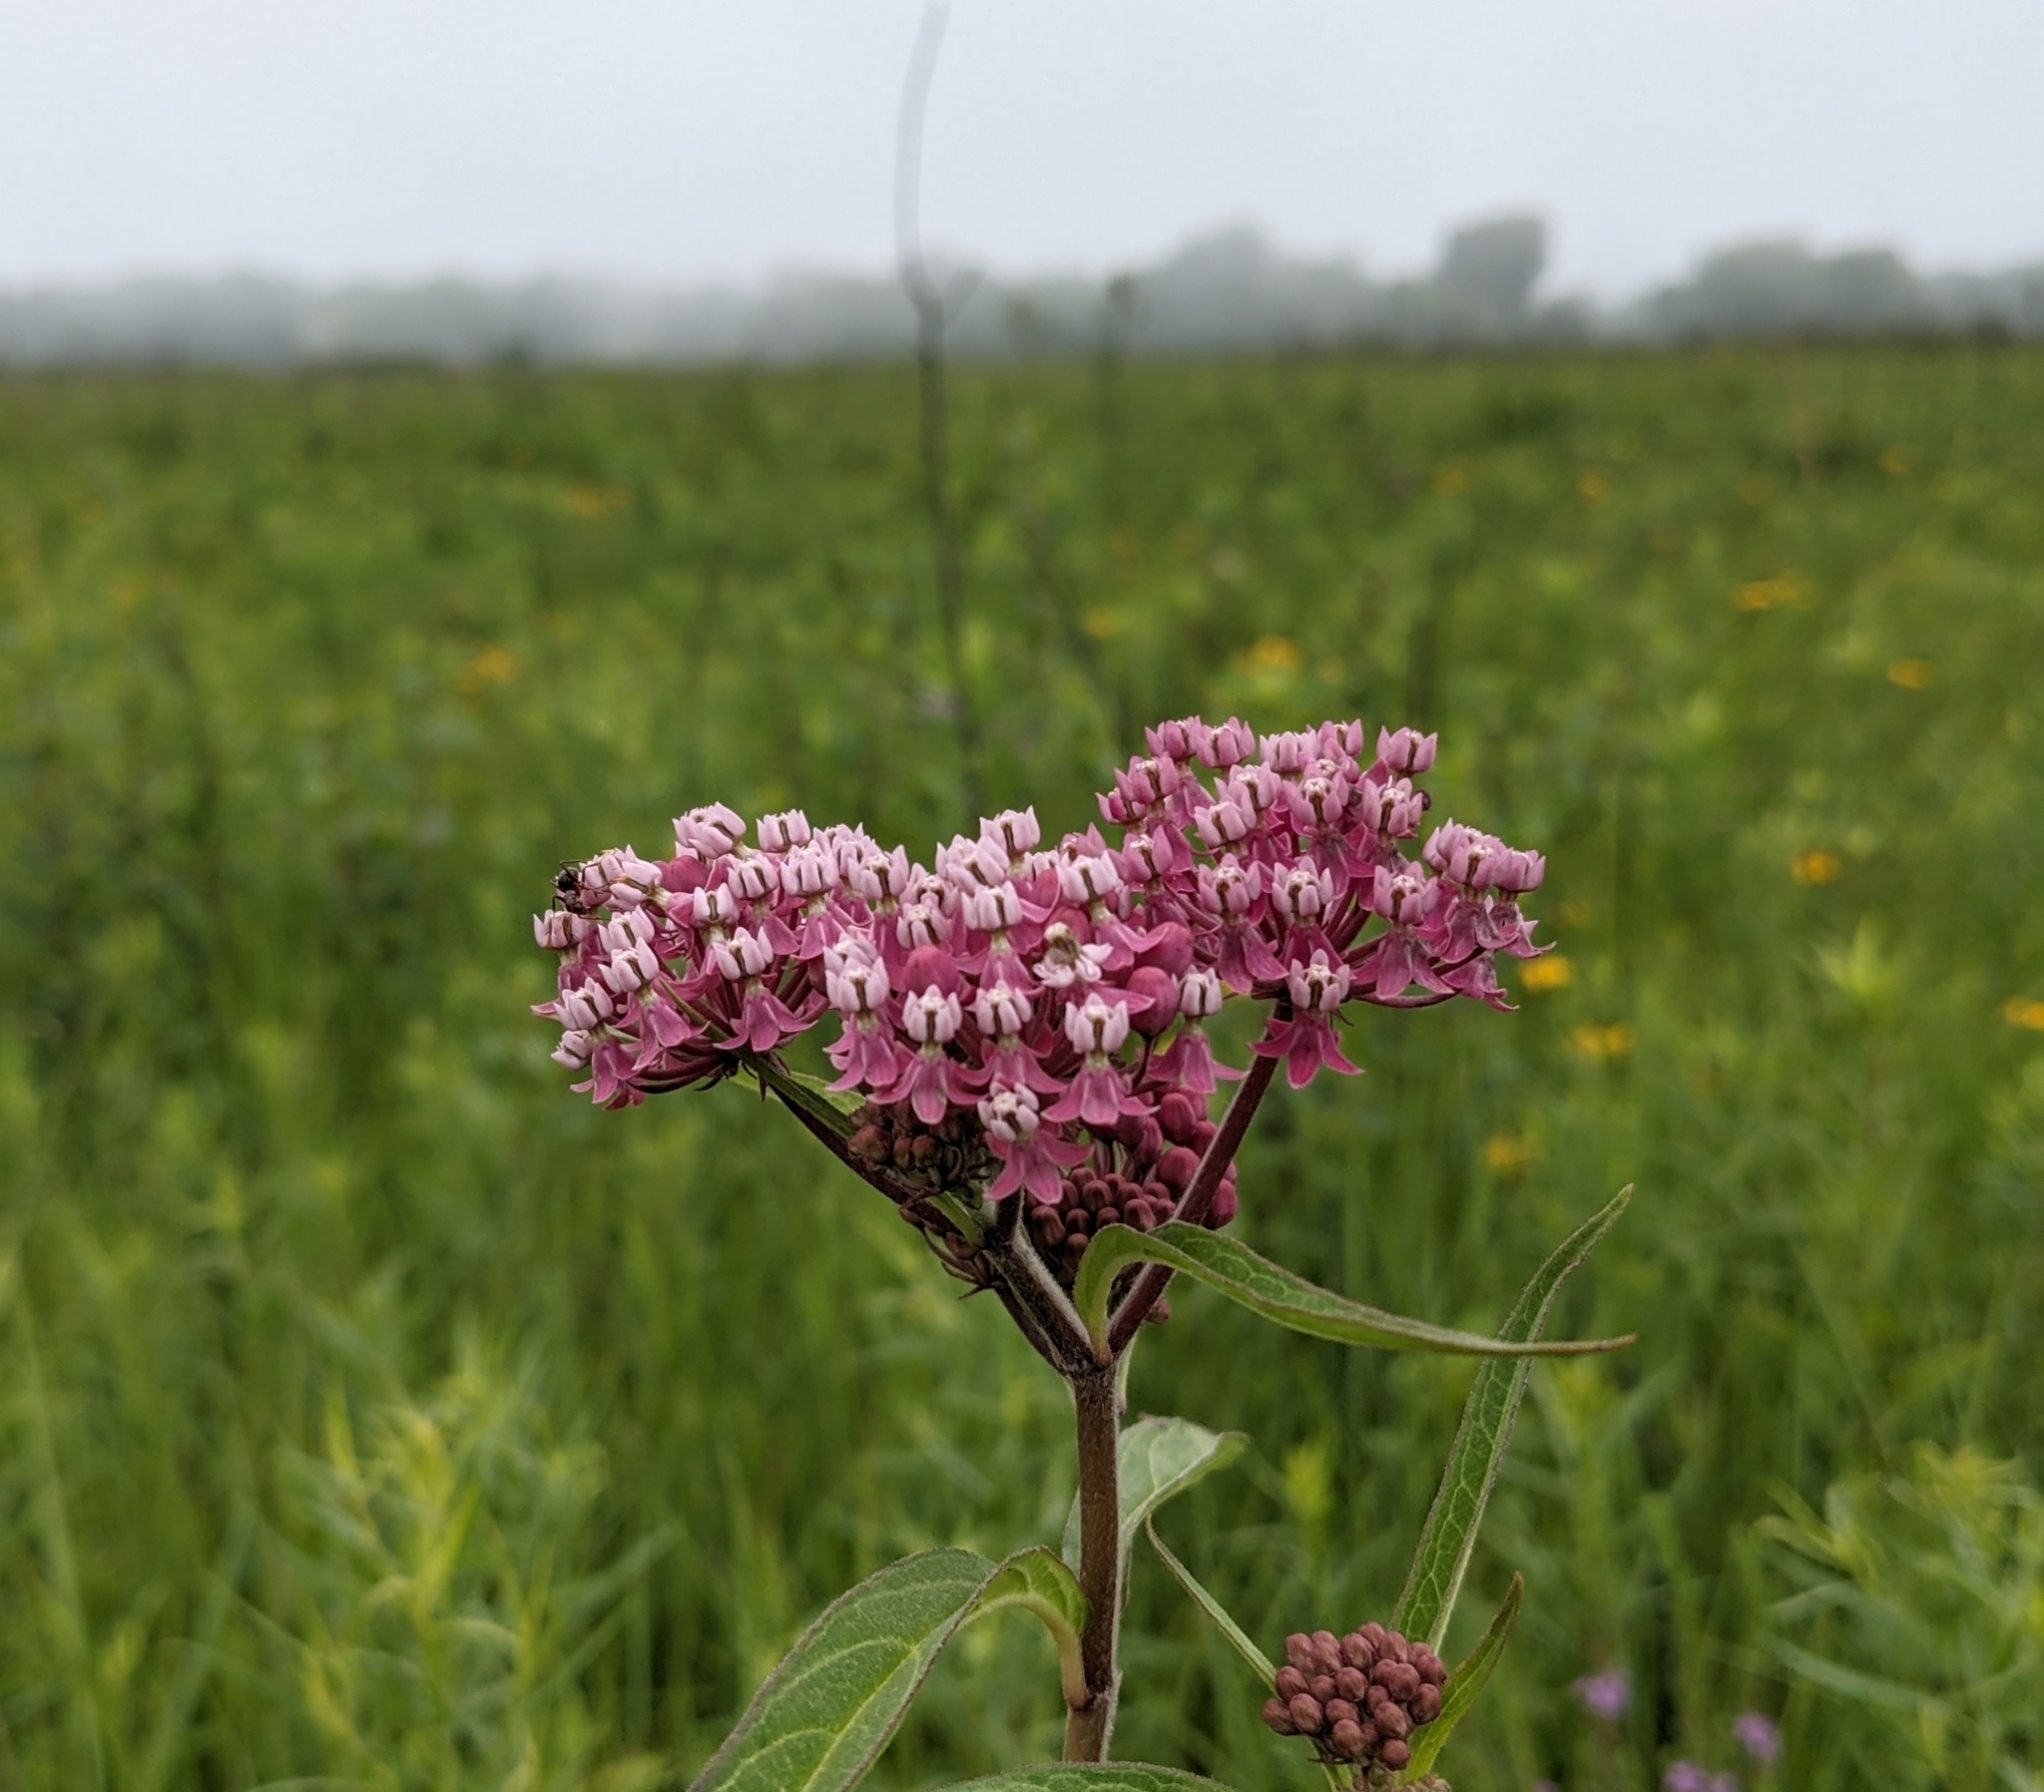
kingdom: Plantae
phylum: Tracheophyta
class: Magnoliopsida
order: Gentianales
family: Apocynaceae
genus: Asclepias
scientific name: Asclepias incarnata
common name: Swamp milkweed
